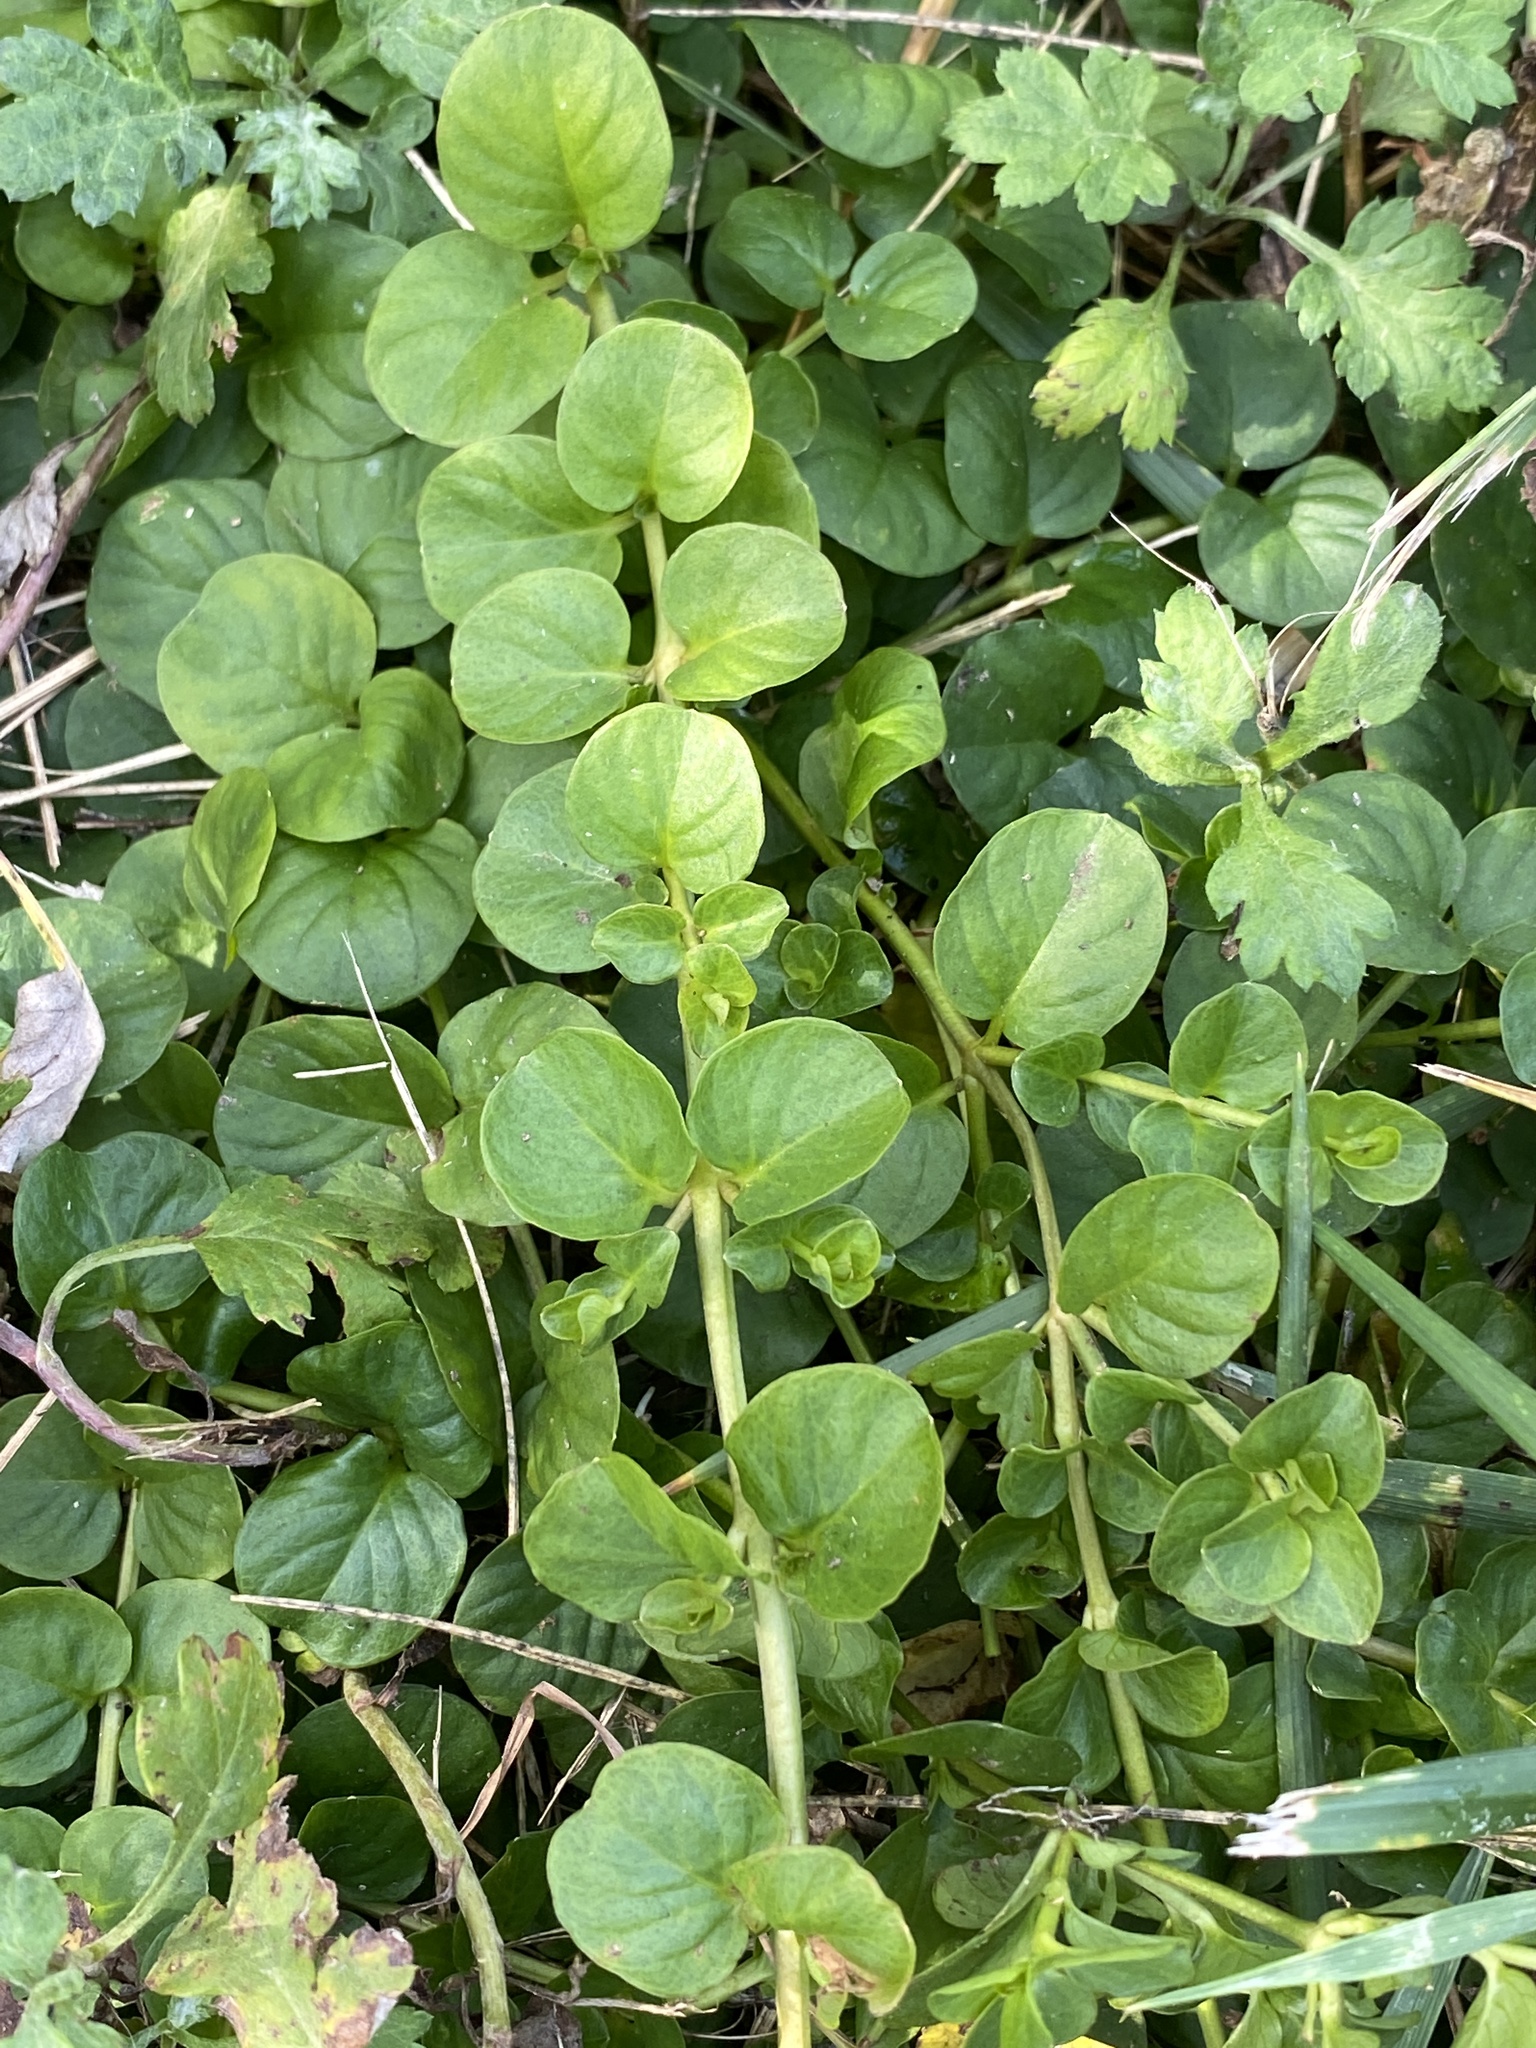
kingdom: Plantae
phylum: Tracheophyta
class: Magnoliopsida
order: Ericales
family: Primulaceae
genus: Lysimachia
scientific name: Lysimachia nummularia
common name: Moneywort
